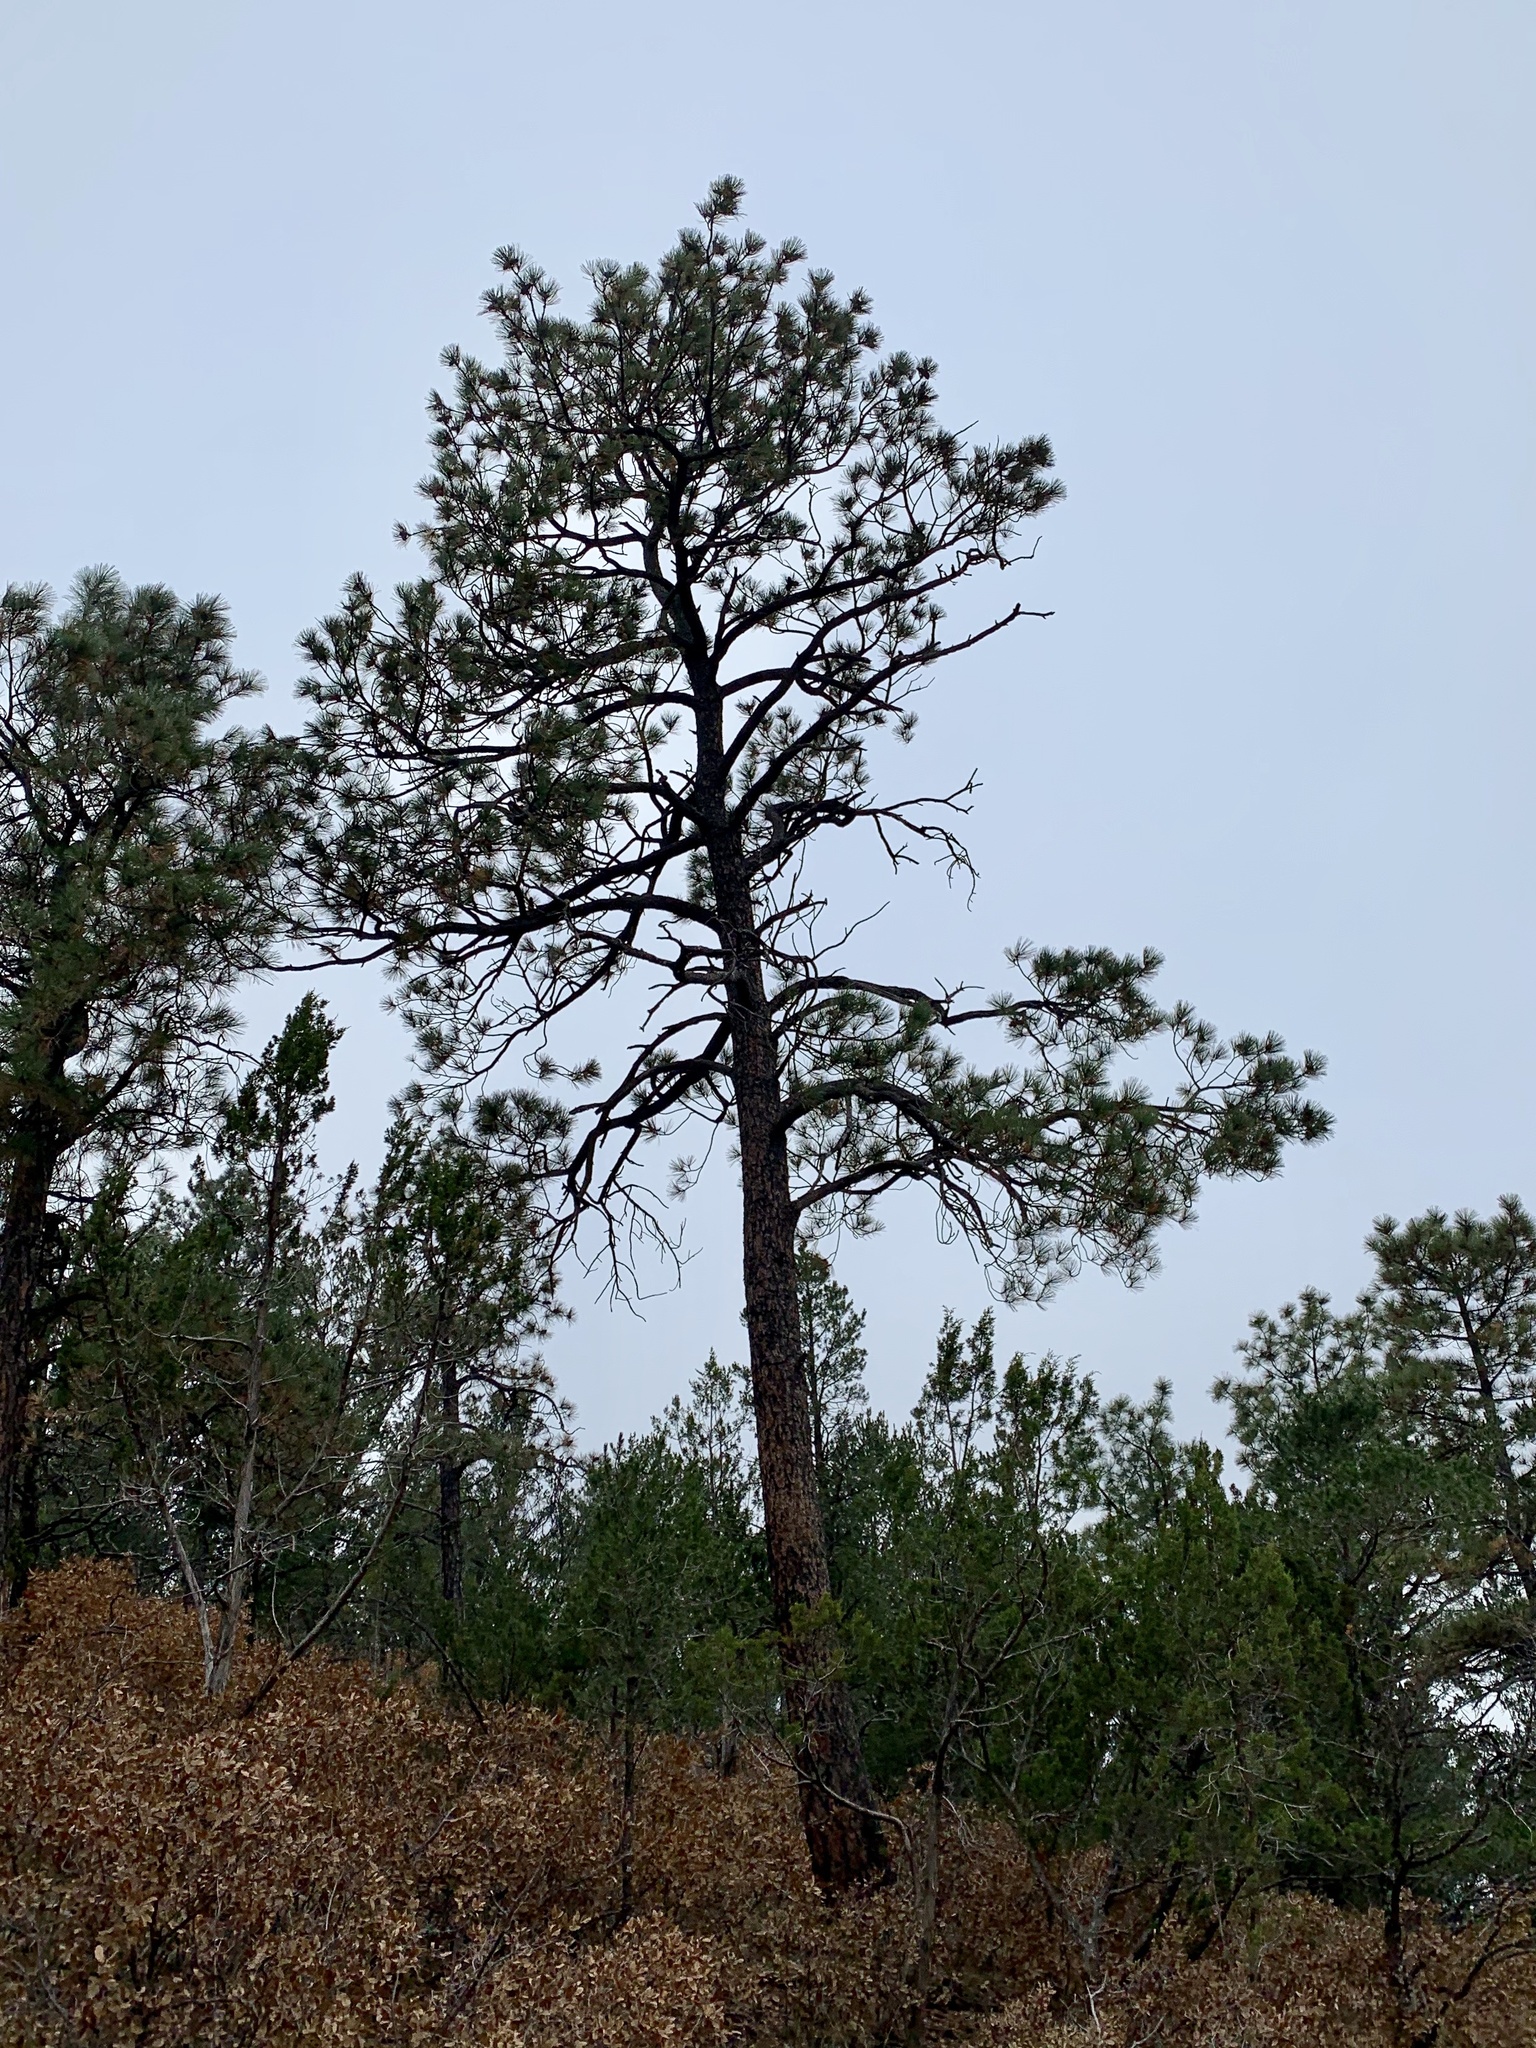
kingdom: Plantae
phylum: Tracheophyta
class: Pinopsida
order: Pinales
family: Pinaceae
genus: Pinus
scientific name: Pinus ponderosa
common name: Western yellow-pine
